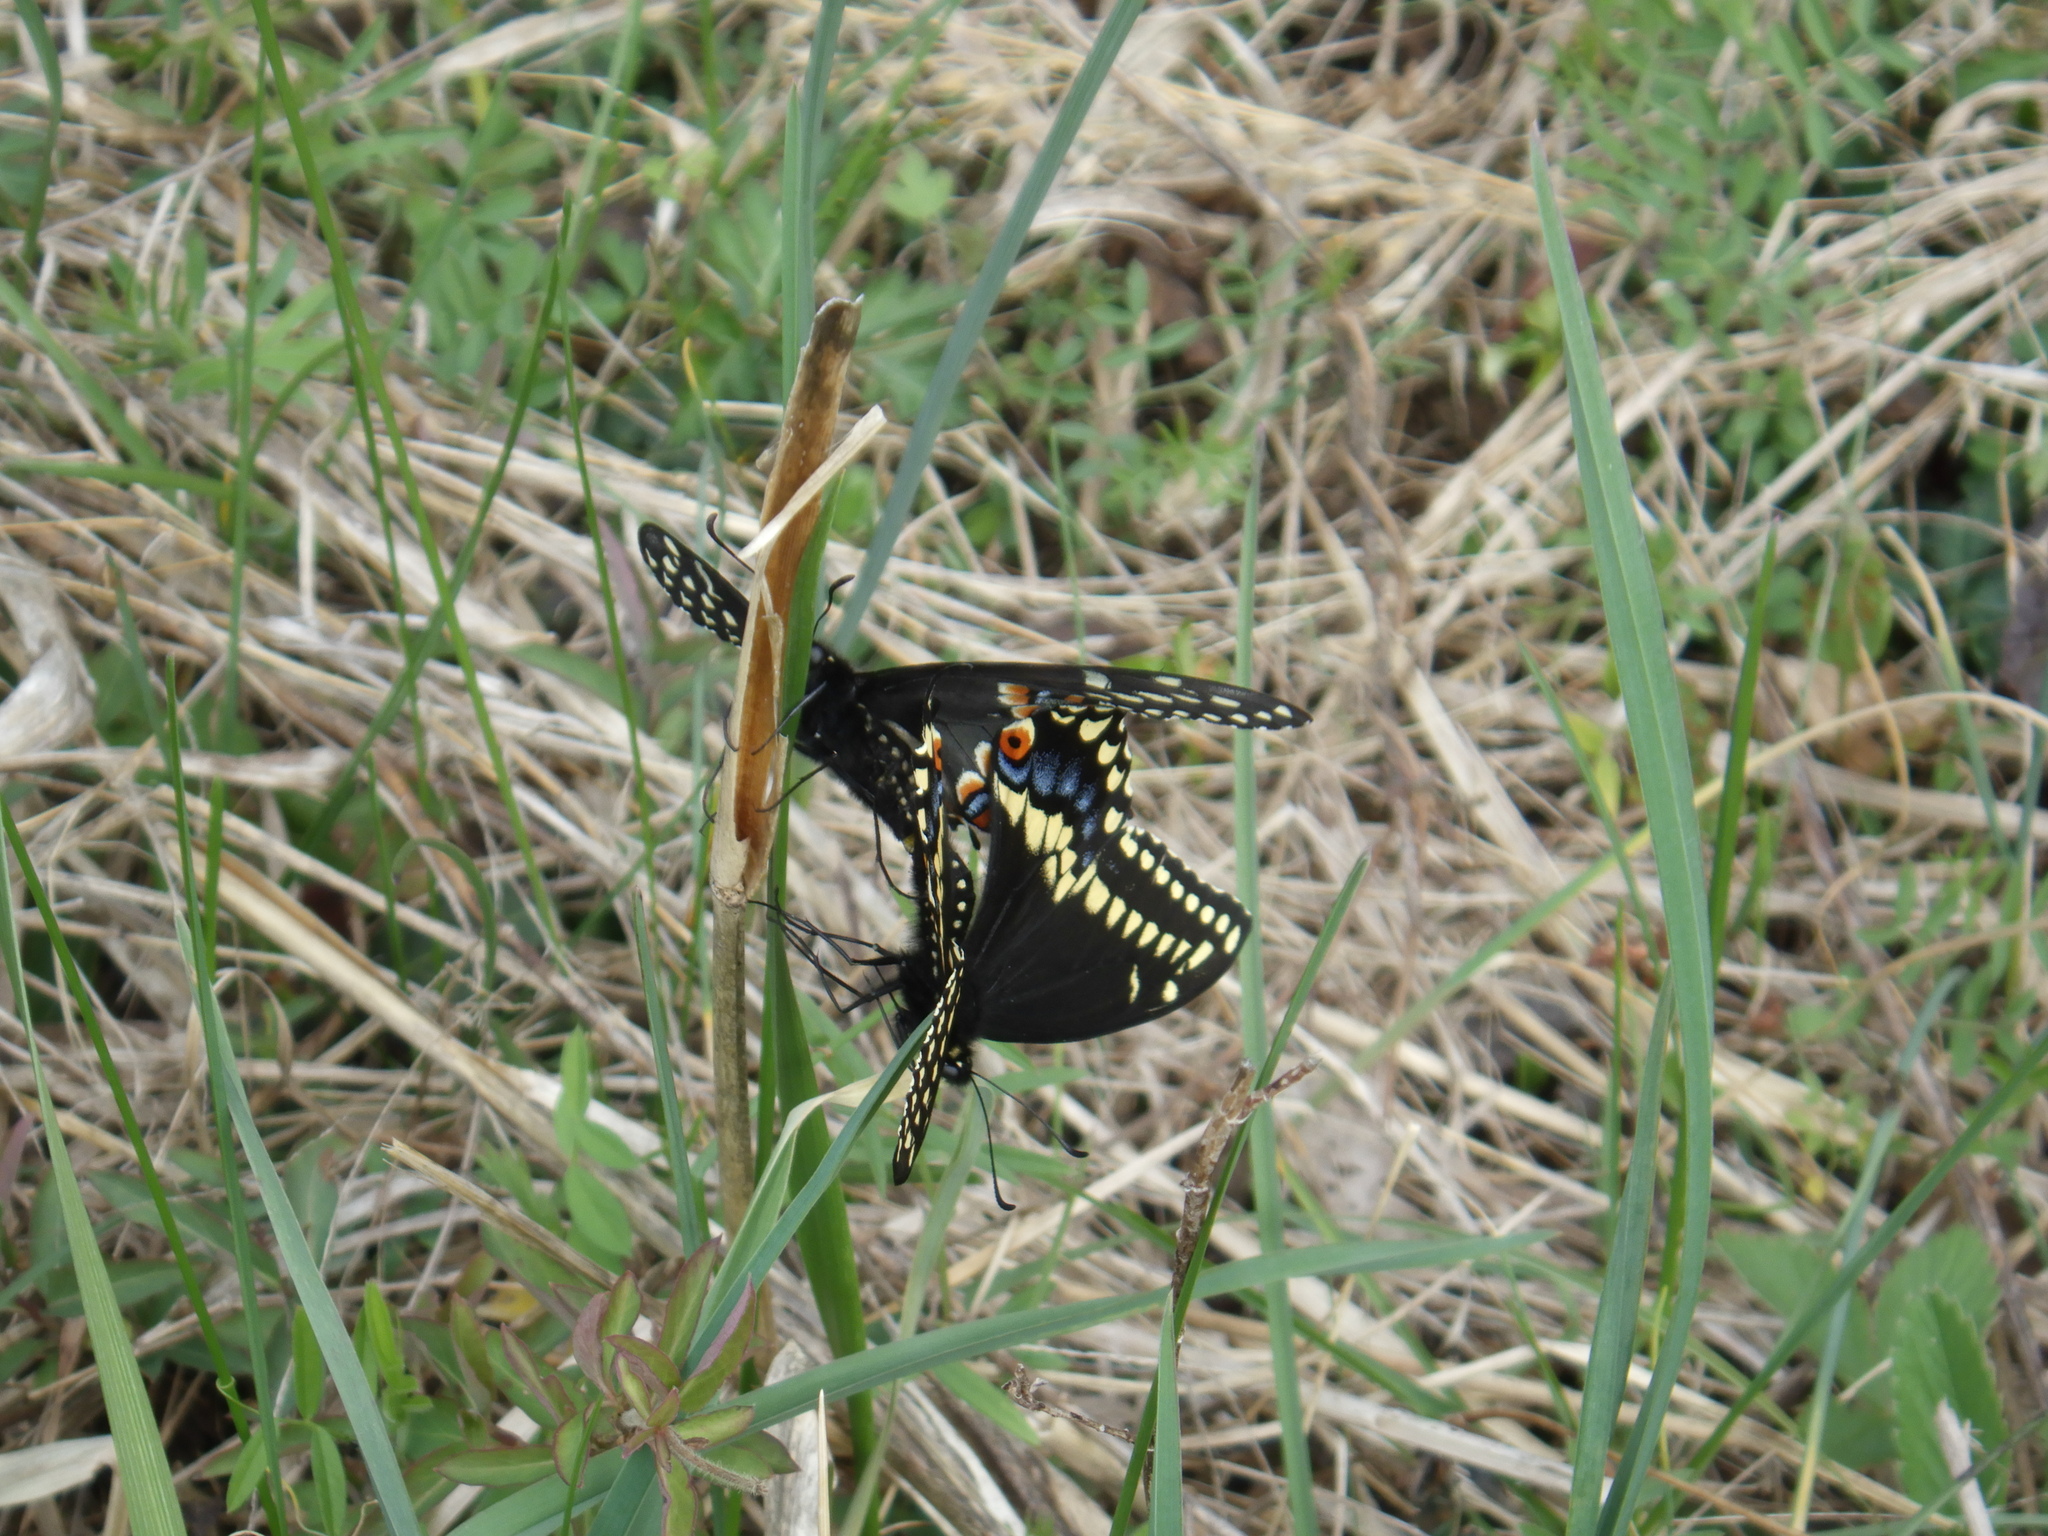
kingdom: Animalia
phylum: Arthropoda
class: Insecta
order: Lepidoptera
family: Papilionidae
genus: Papilio
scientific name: Papilio polyxenes
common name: Black swallowtail
